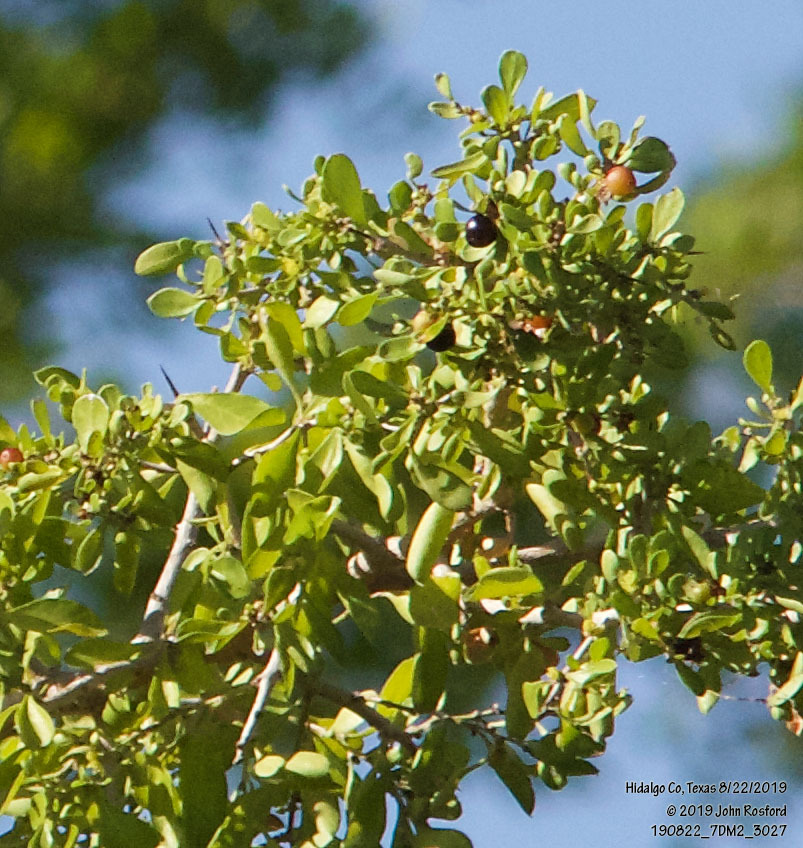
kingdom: Plantae
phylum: Tracheophyta
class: Magnoliopsida
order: Rosales
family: Rhamnaceae
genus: Condalia
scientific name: Condalia hookeri
